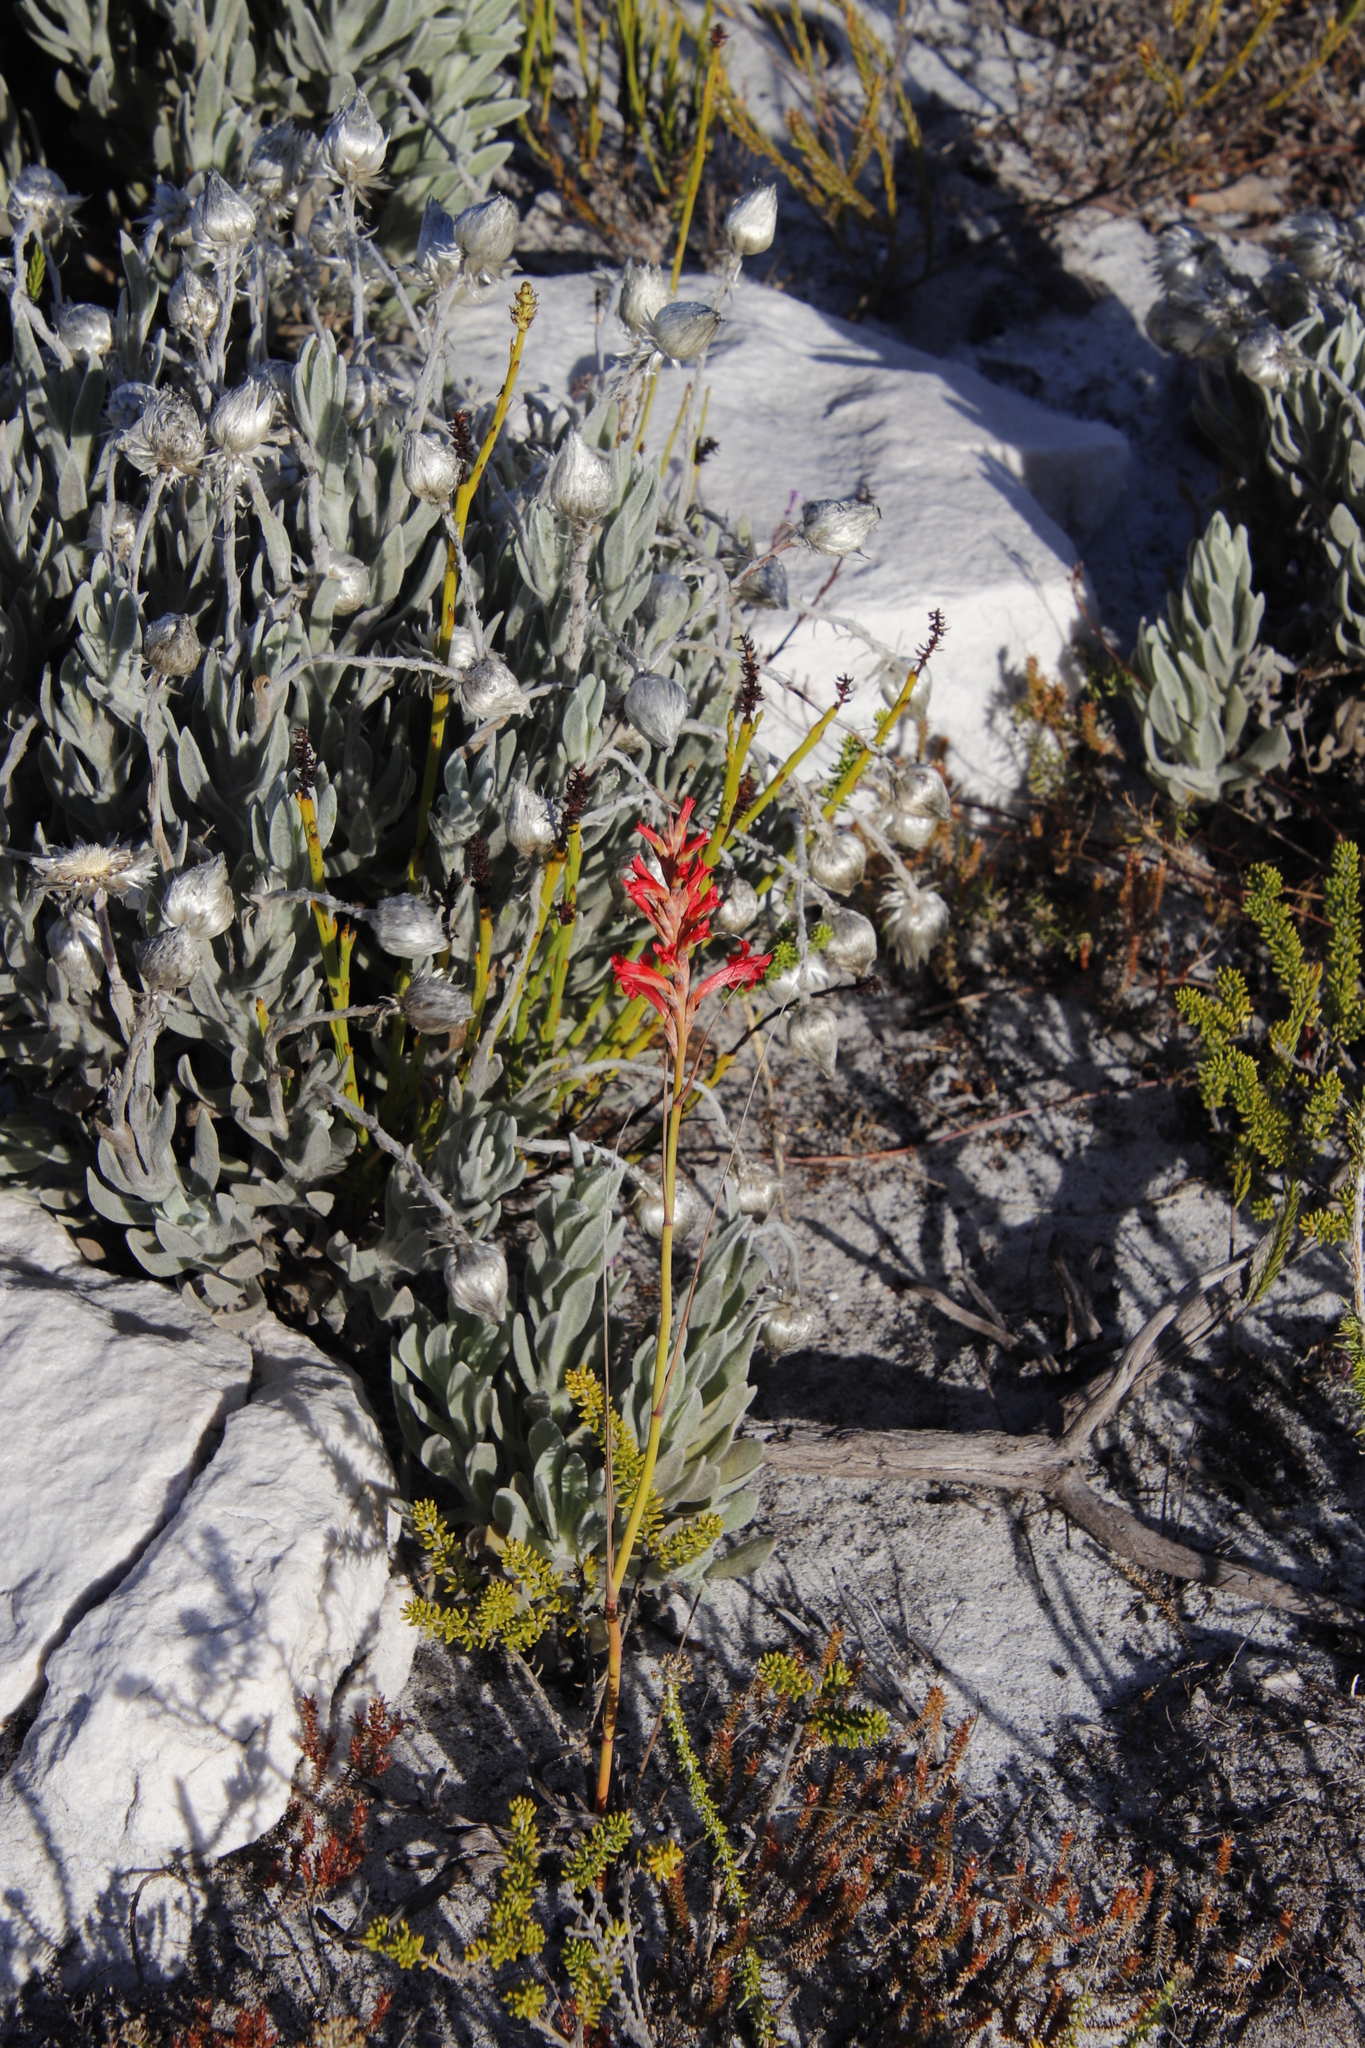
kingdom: Plantae
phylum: Tracheophyta
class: Liliopsida
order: Asparagales
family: Iridaceae
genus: Tritoniopsis
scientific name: Tritoniopsis triticea
